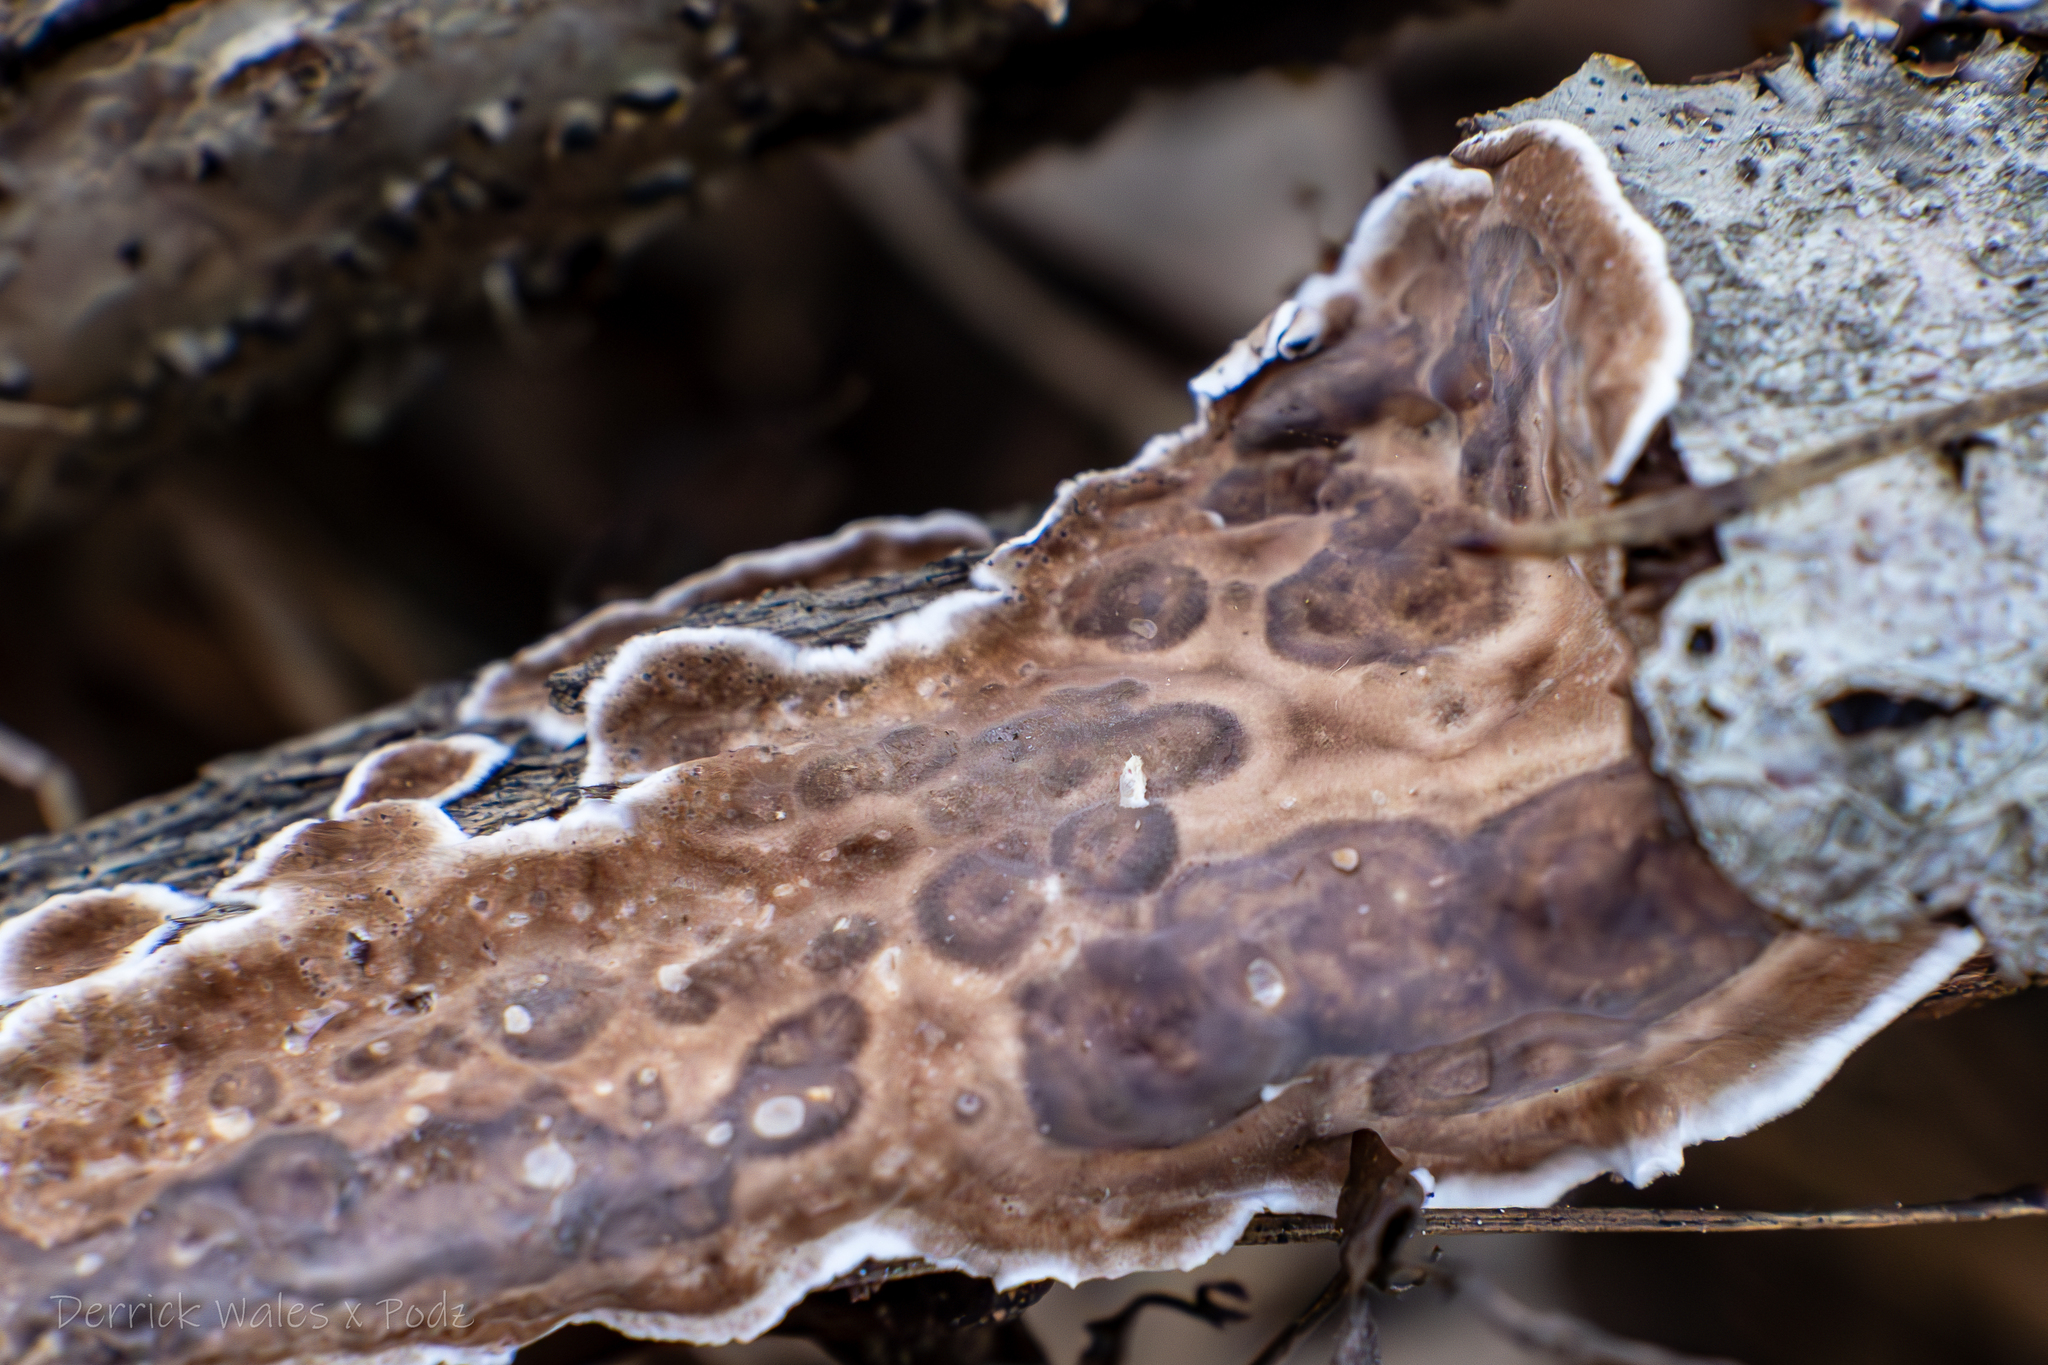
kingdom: Fungi
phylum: Basidiomycota
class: Agaricomycetes
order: Russulales
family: Peniophoraceae
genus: Peniophora
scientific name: Peniophora albobadia
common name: Giraffe spots
